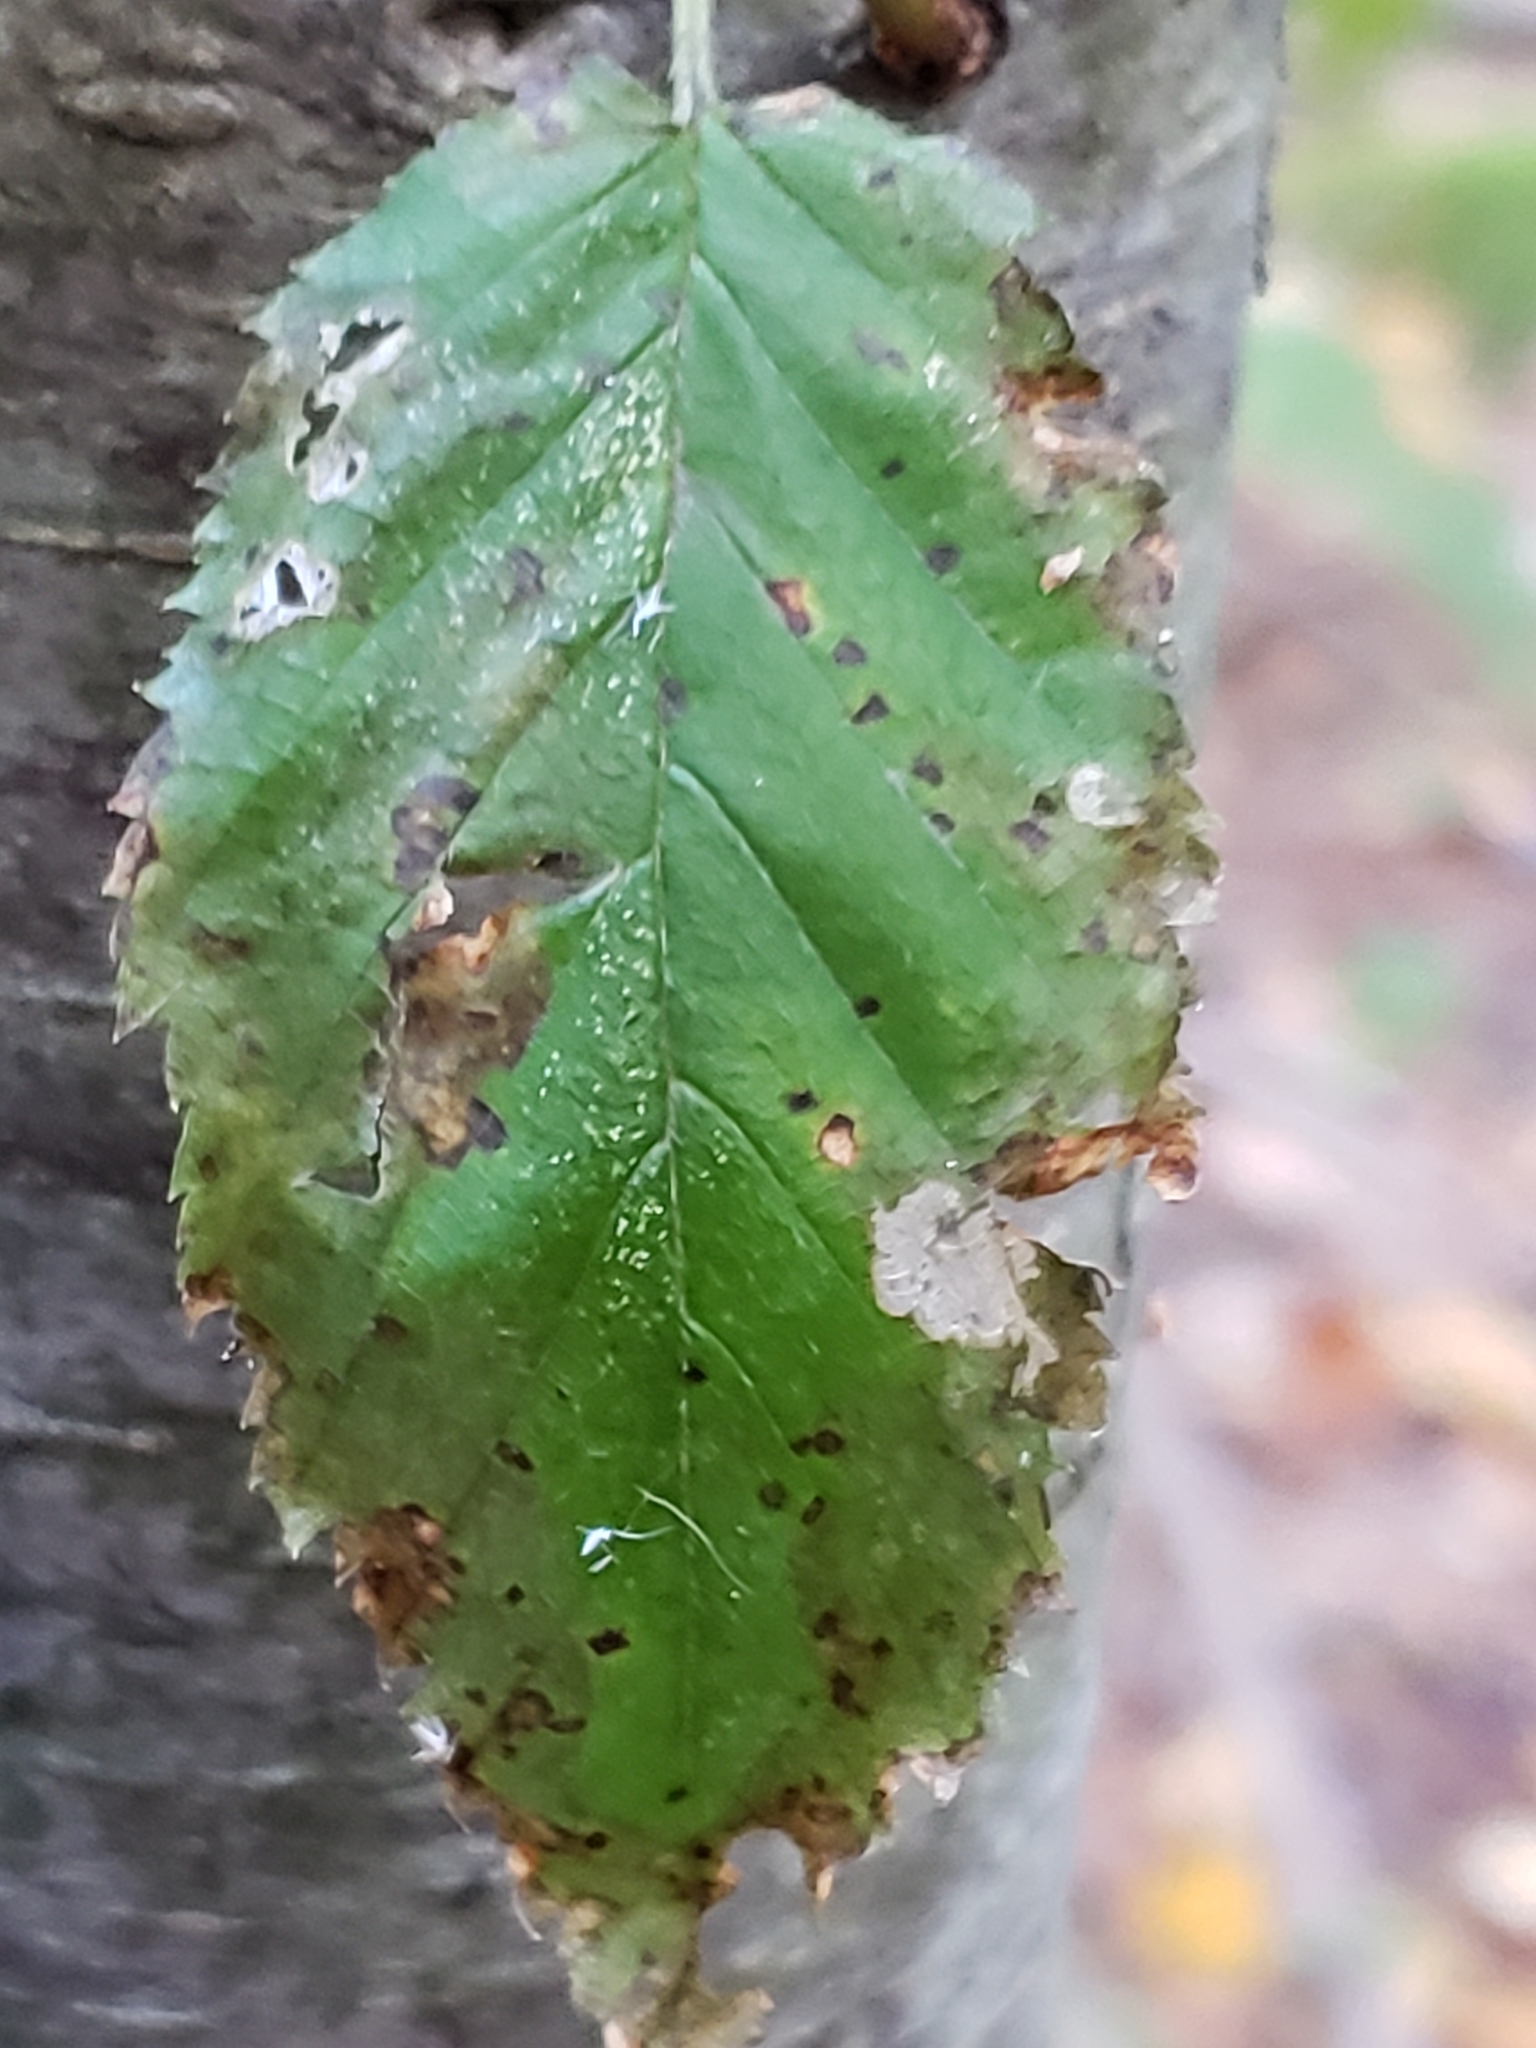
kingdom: Fungi
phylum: Basidiomycota
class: Agaricomycetes
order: Polyporales
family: Fomitopsidaceae
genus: Fomitopsis
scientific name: Fomitopsis betulina
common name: Birch polypore
